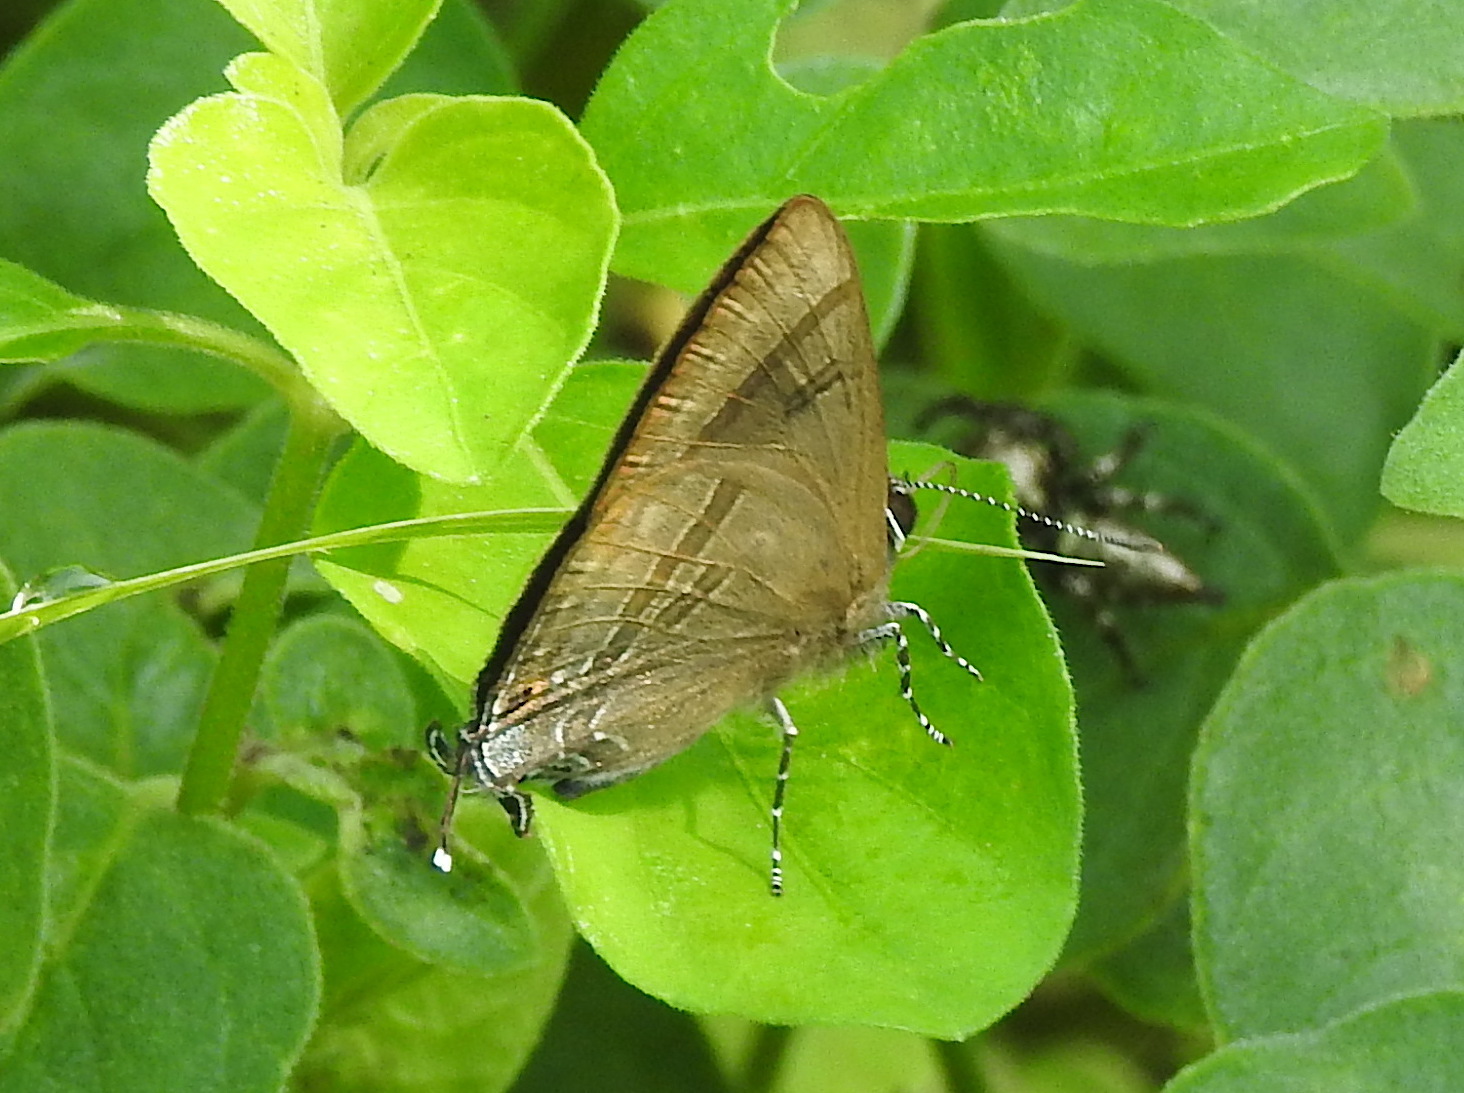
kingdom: Animalia
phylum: Arthropoda
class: Insecta
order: Lepidoptera
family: Lycaenidae
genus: Rapala
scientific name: Rapala varuna
